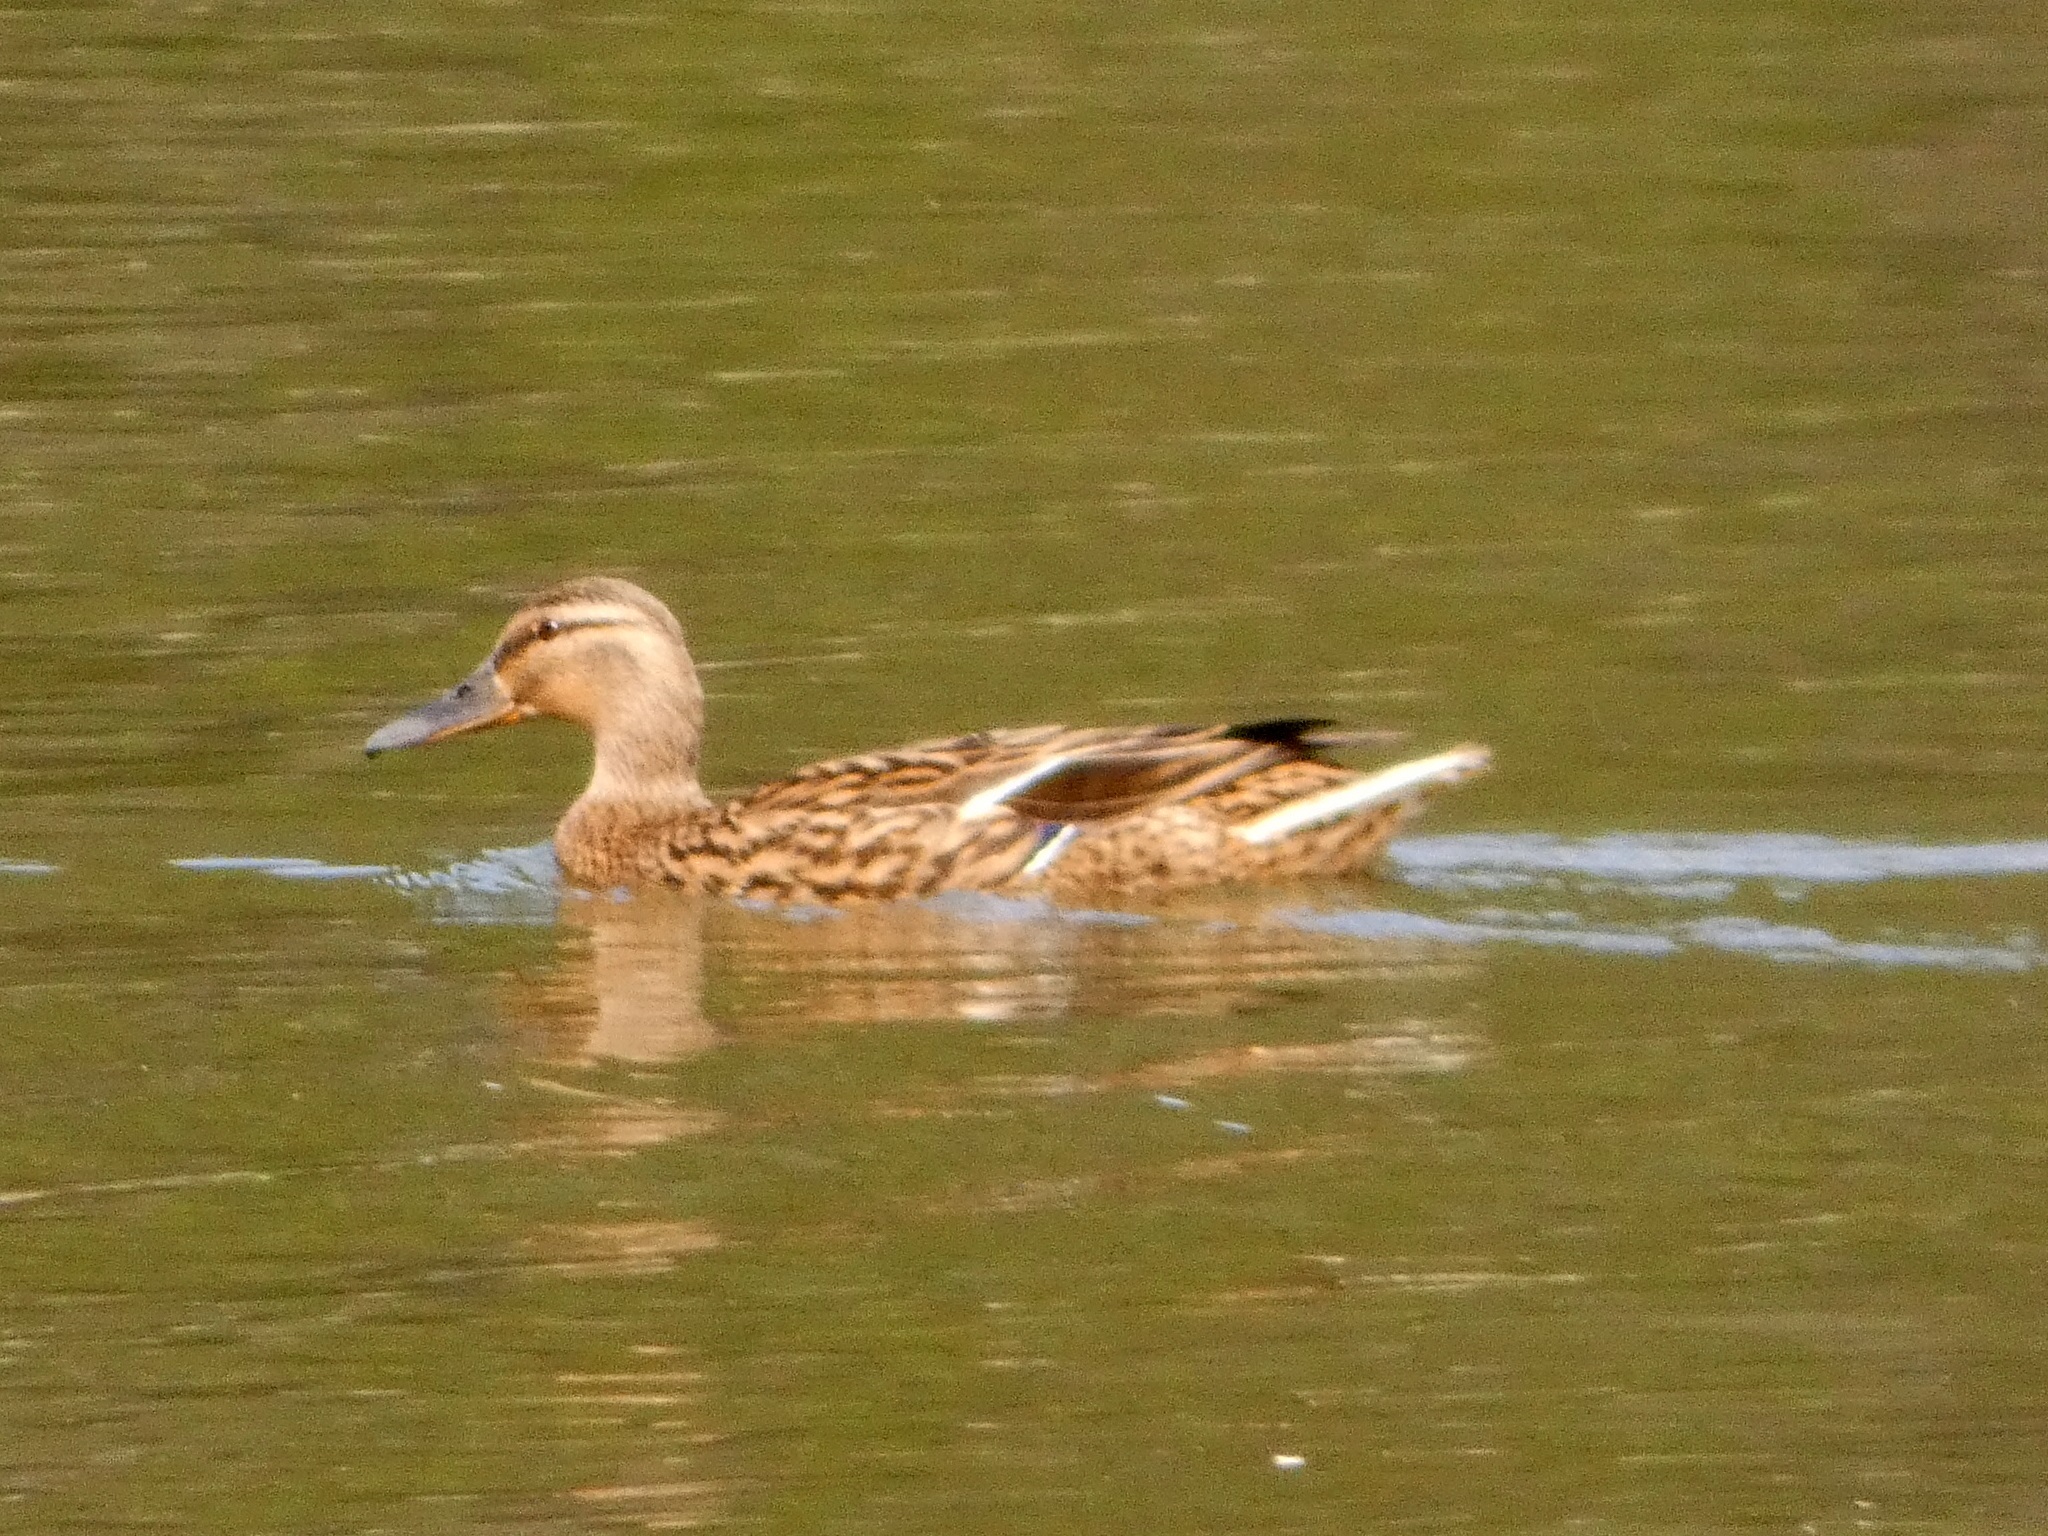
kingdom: Animalia
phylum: Chordata
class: Aves
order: Anseriformes
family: Anatidae
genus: Anas
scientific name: Anas platyrhynchos
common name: Mallard
